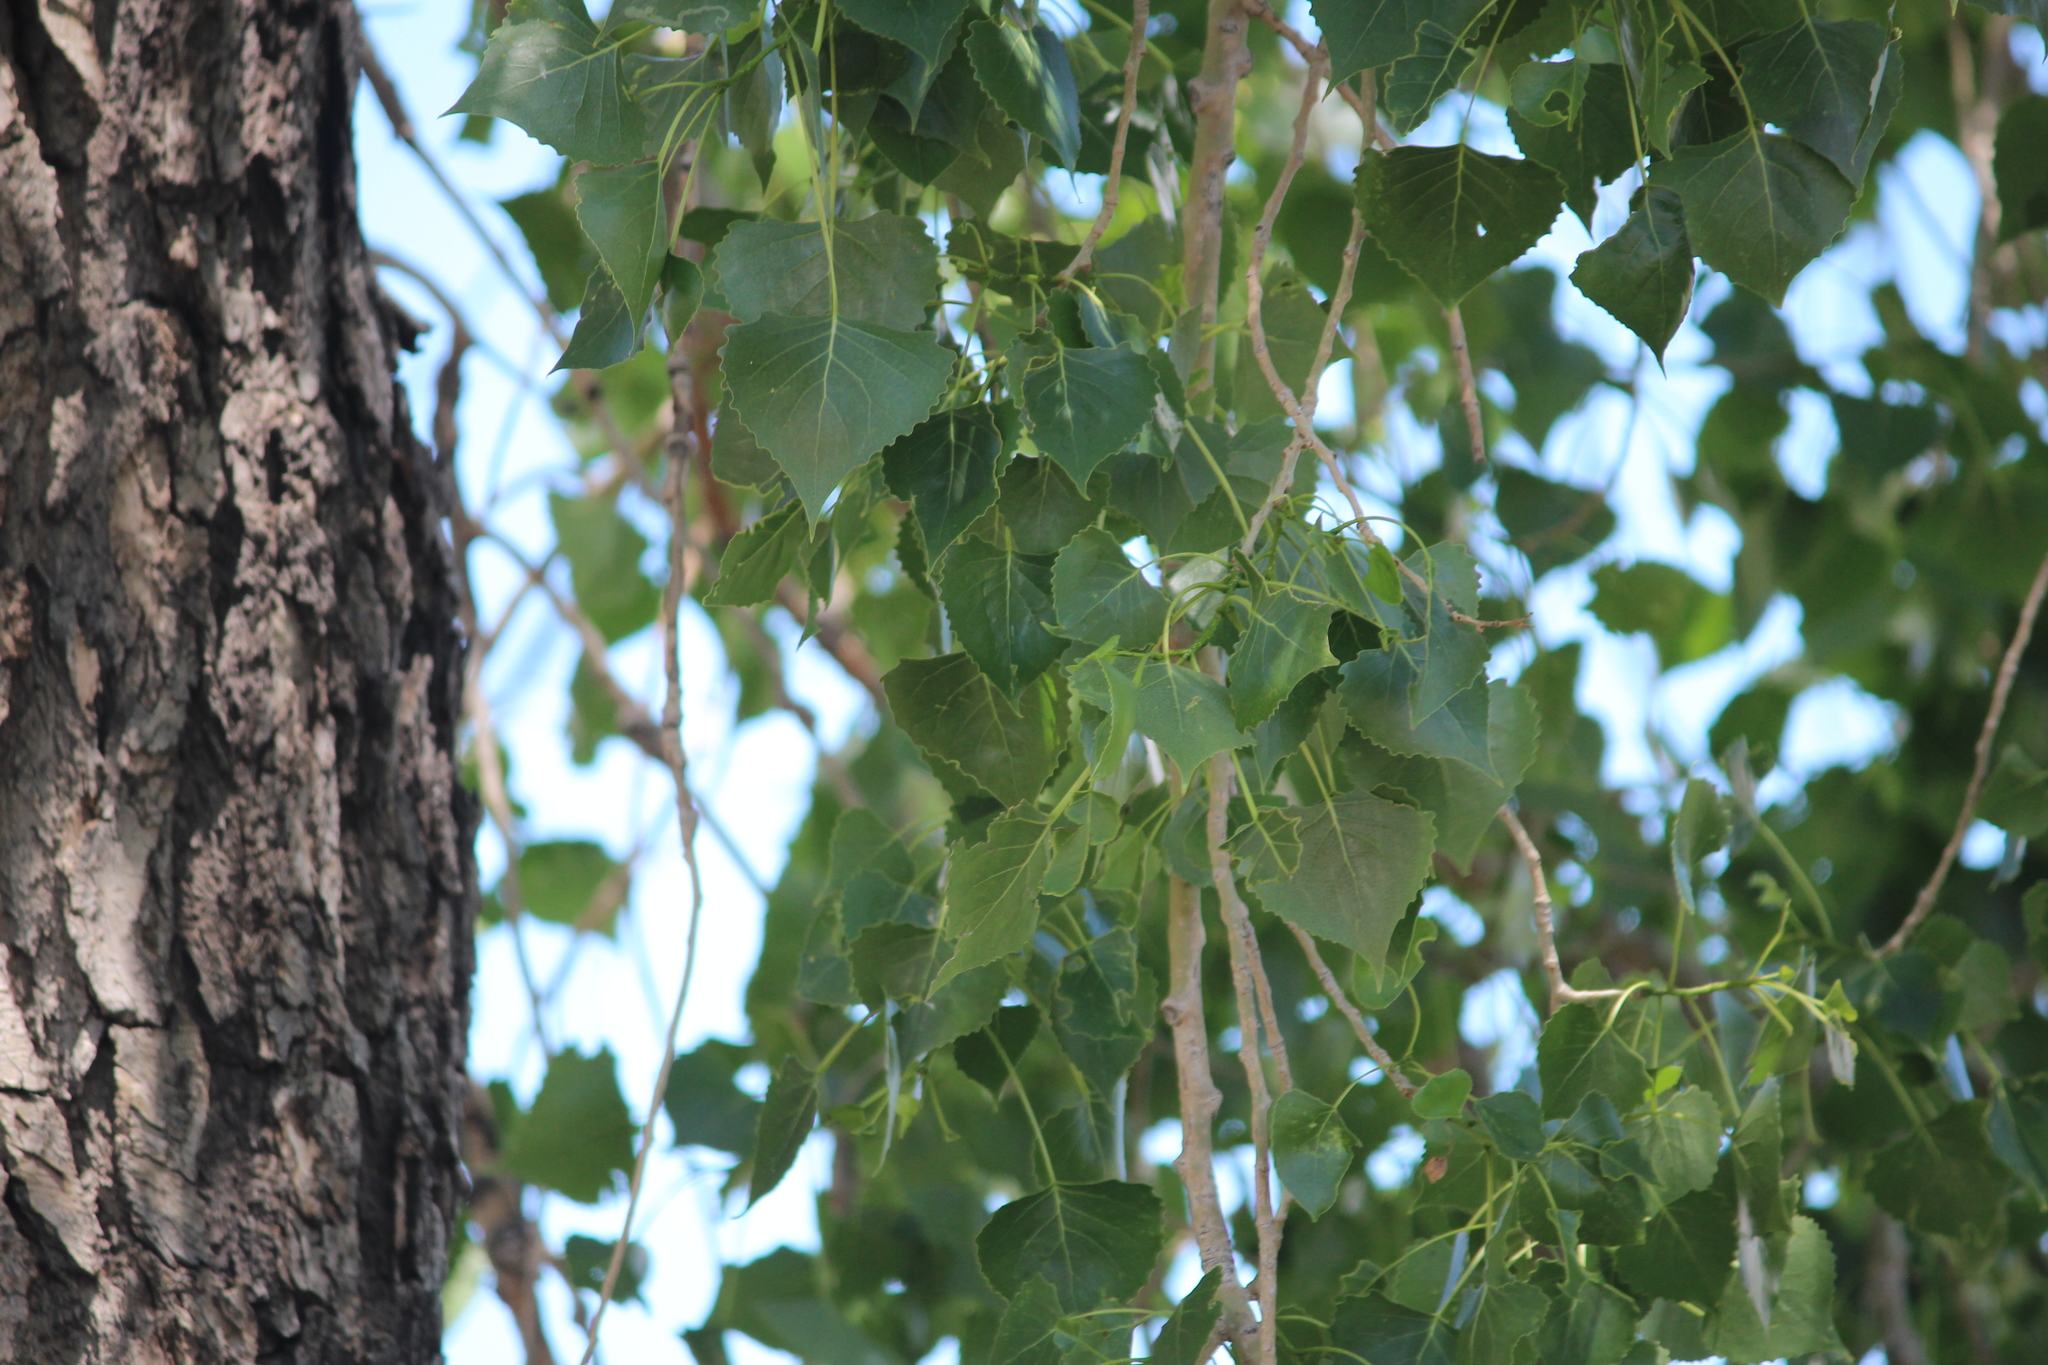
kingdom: Plantae
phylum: Tracheophyta
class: Magnoliopsida
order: Malpighiales
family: Salicaceae
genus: Populus
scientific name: Populus deltoides
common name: Eastern cottonwood
